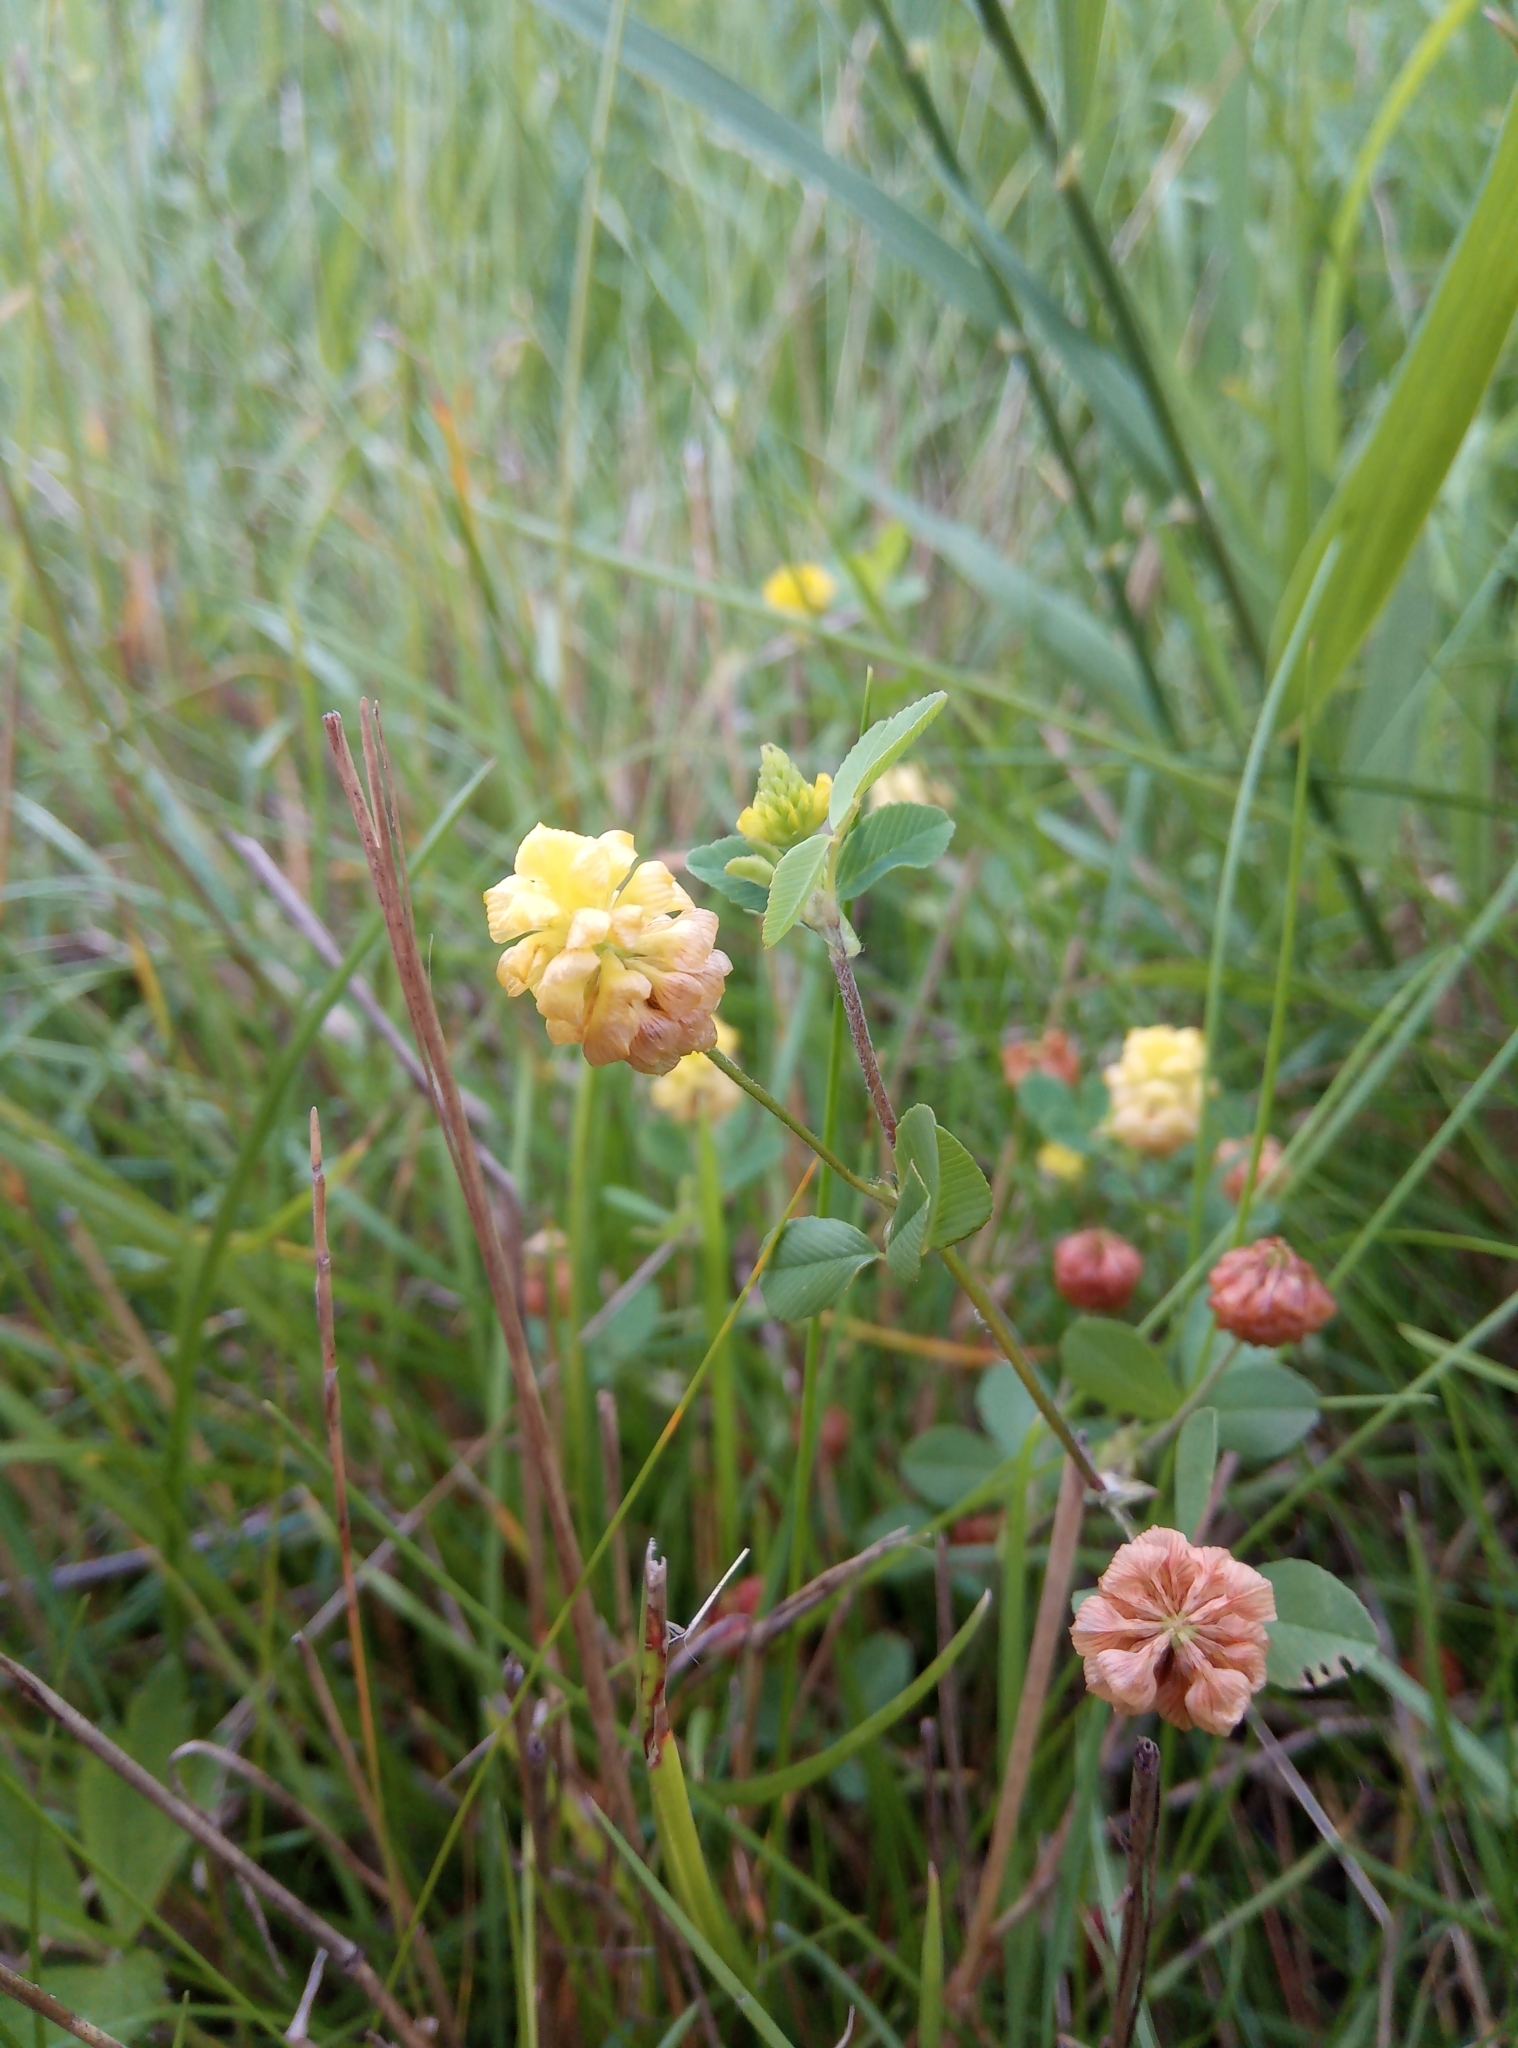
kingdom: Plantae
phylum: Tracheophyta
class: Magnoliopsida
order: Fabales
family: Fabaceae
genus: Trifolium
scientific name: Trifolium campestre
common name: Field clover
